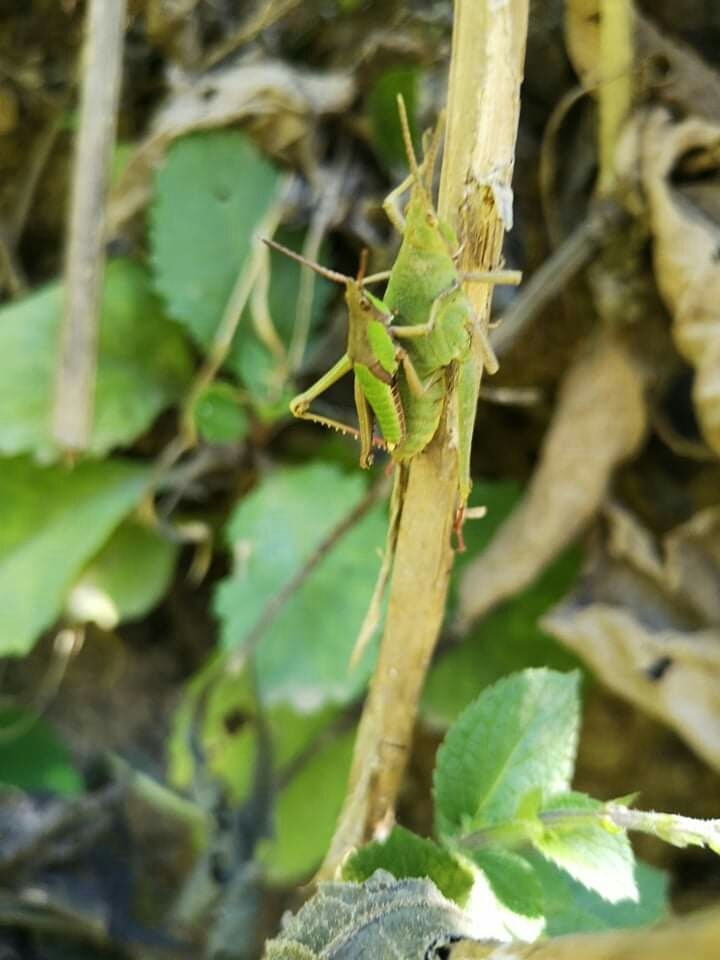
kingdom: Animalia
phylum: Arthropoda
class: Insecta
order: Orthoptera
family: Pyrgomorphidae
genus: Prosphena
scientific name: Prosphena scudderi
